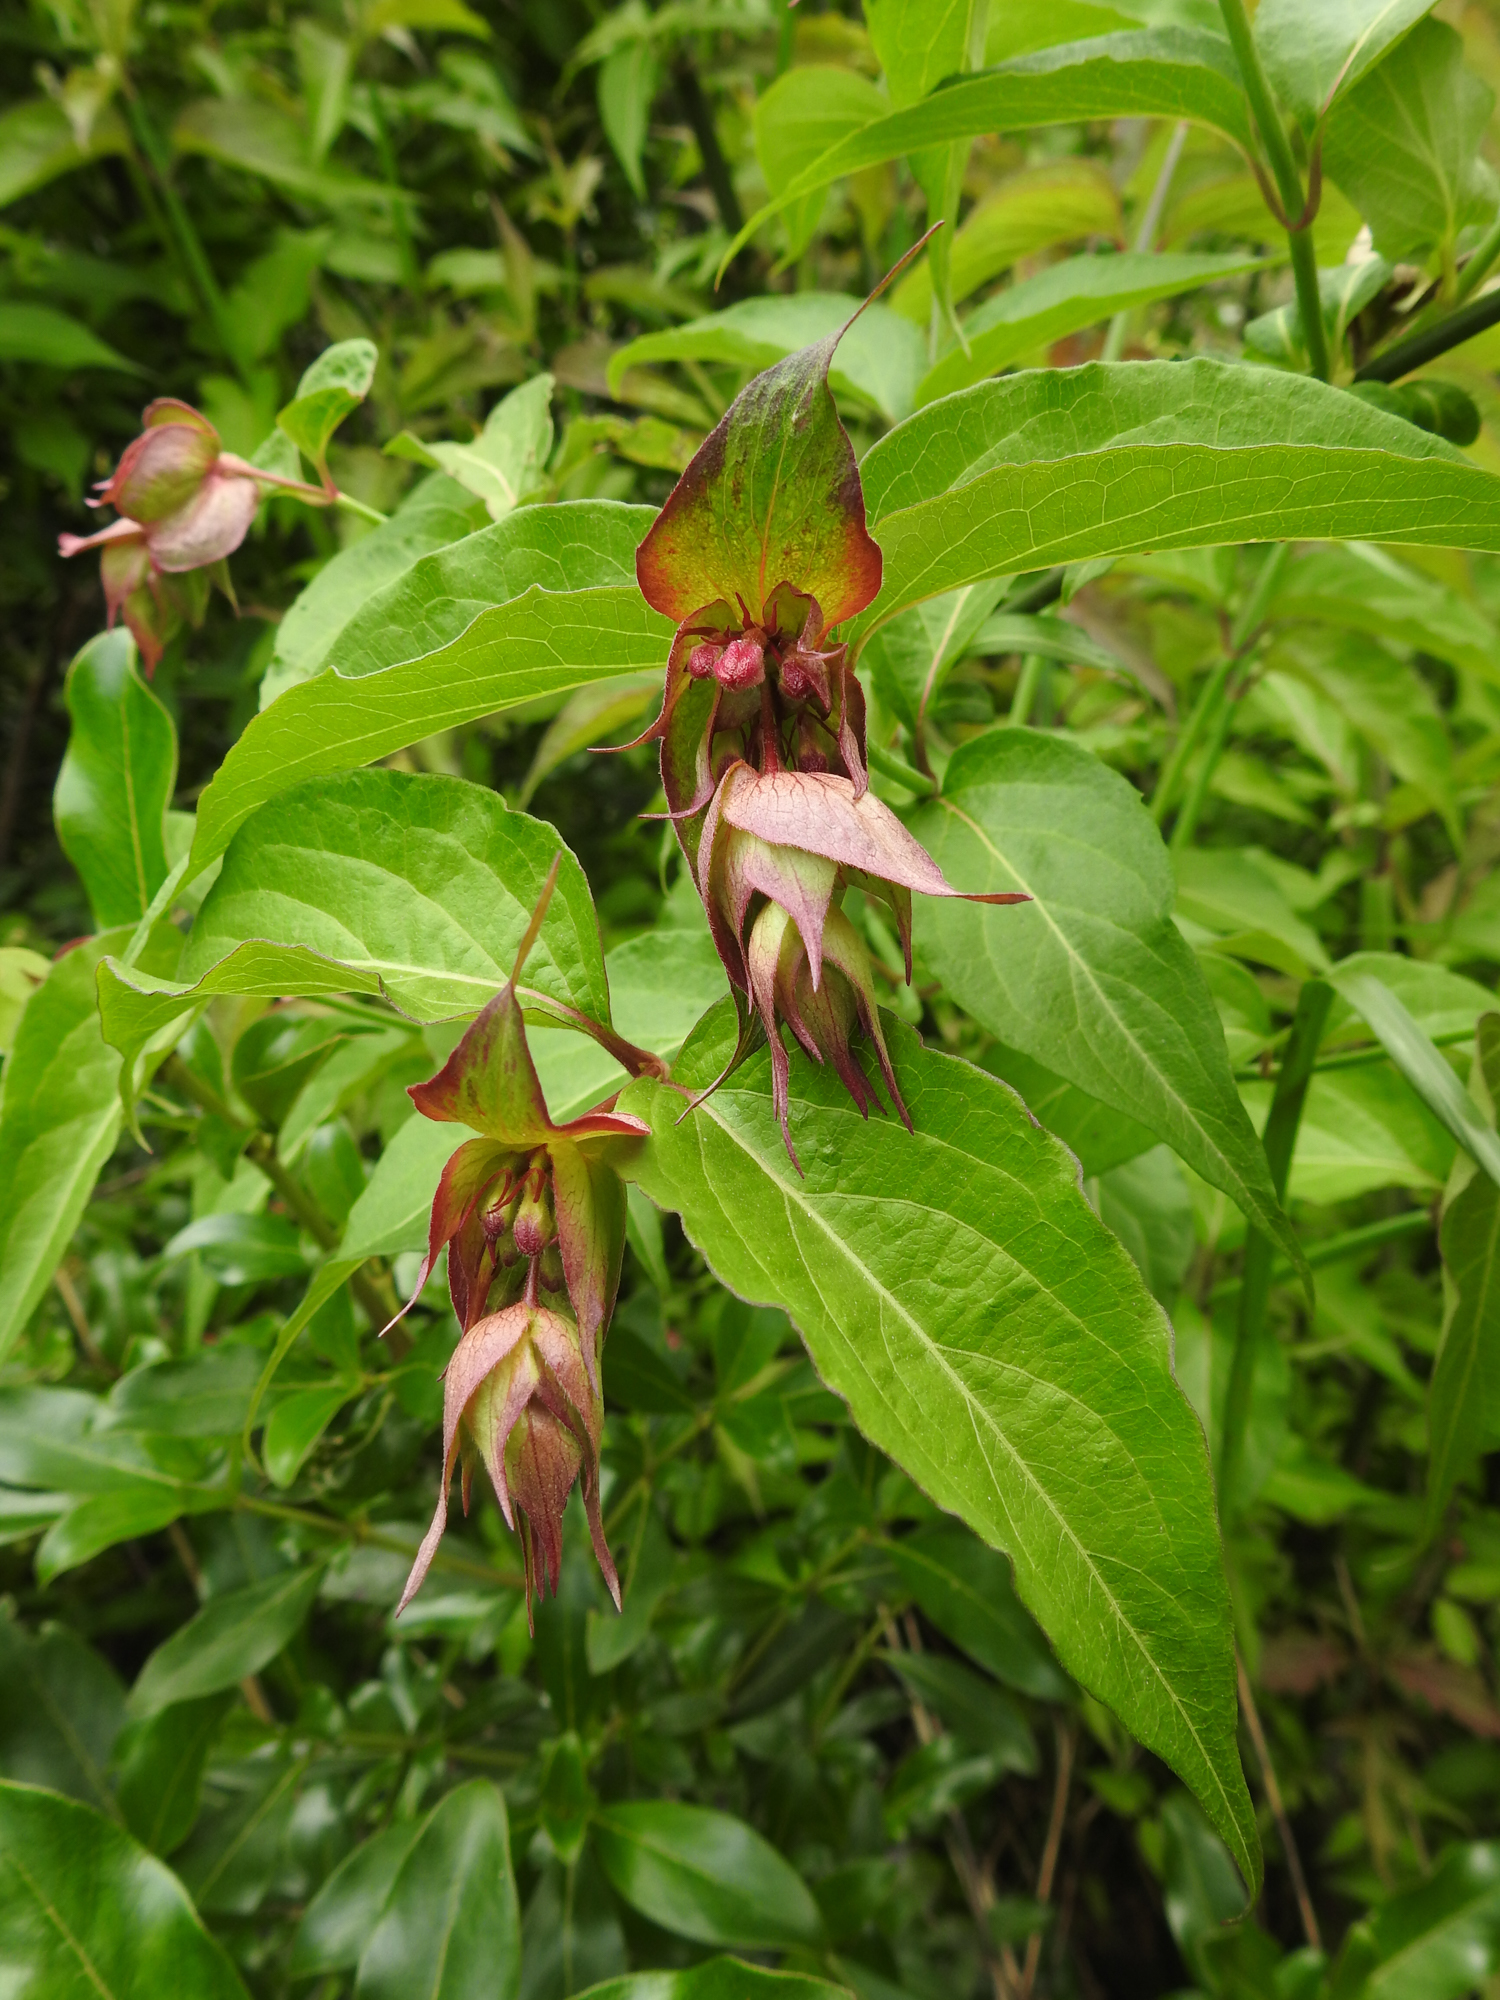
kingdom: Plantae
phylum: Tracheophyta
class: Magnoliopsida
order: Dipsacales
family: Caprifoliaceae
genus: Leycesteria
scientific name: Leycesteria formosa
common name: Himalayan honeysuckle
